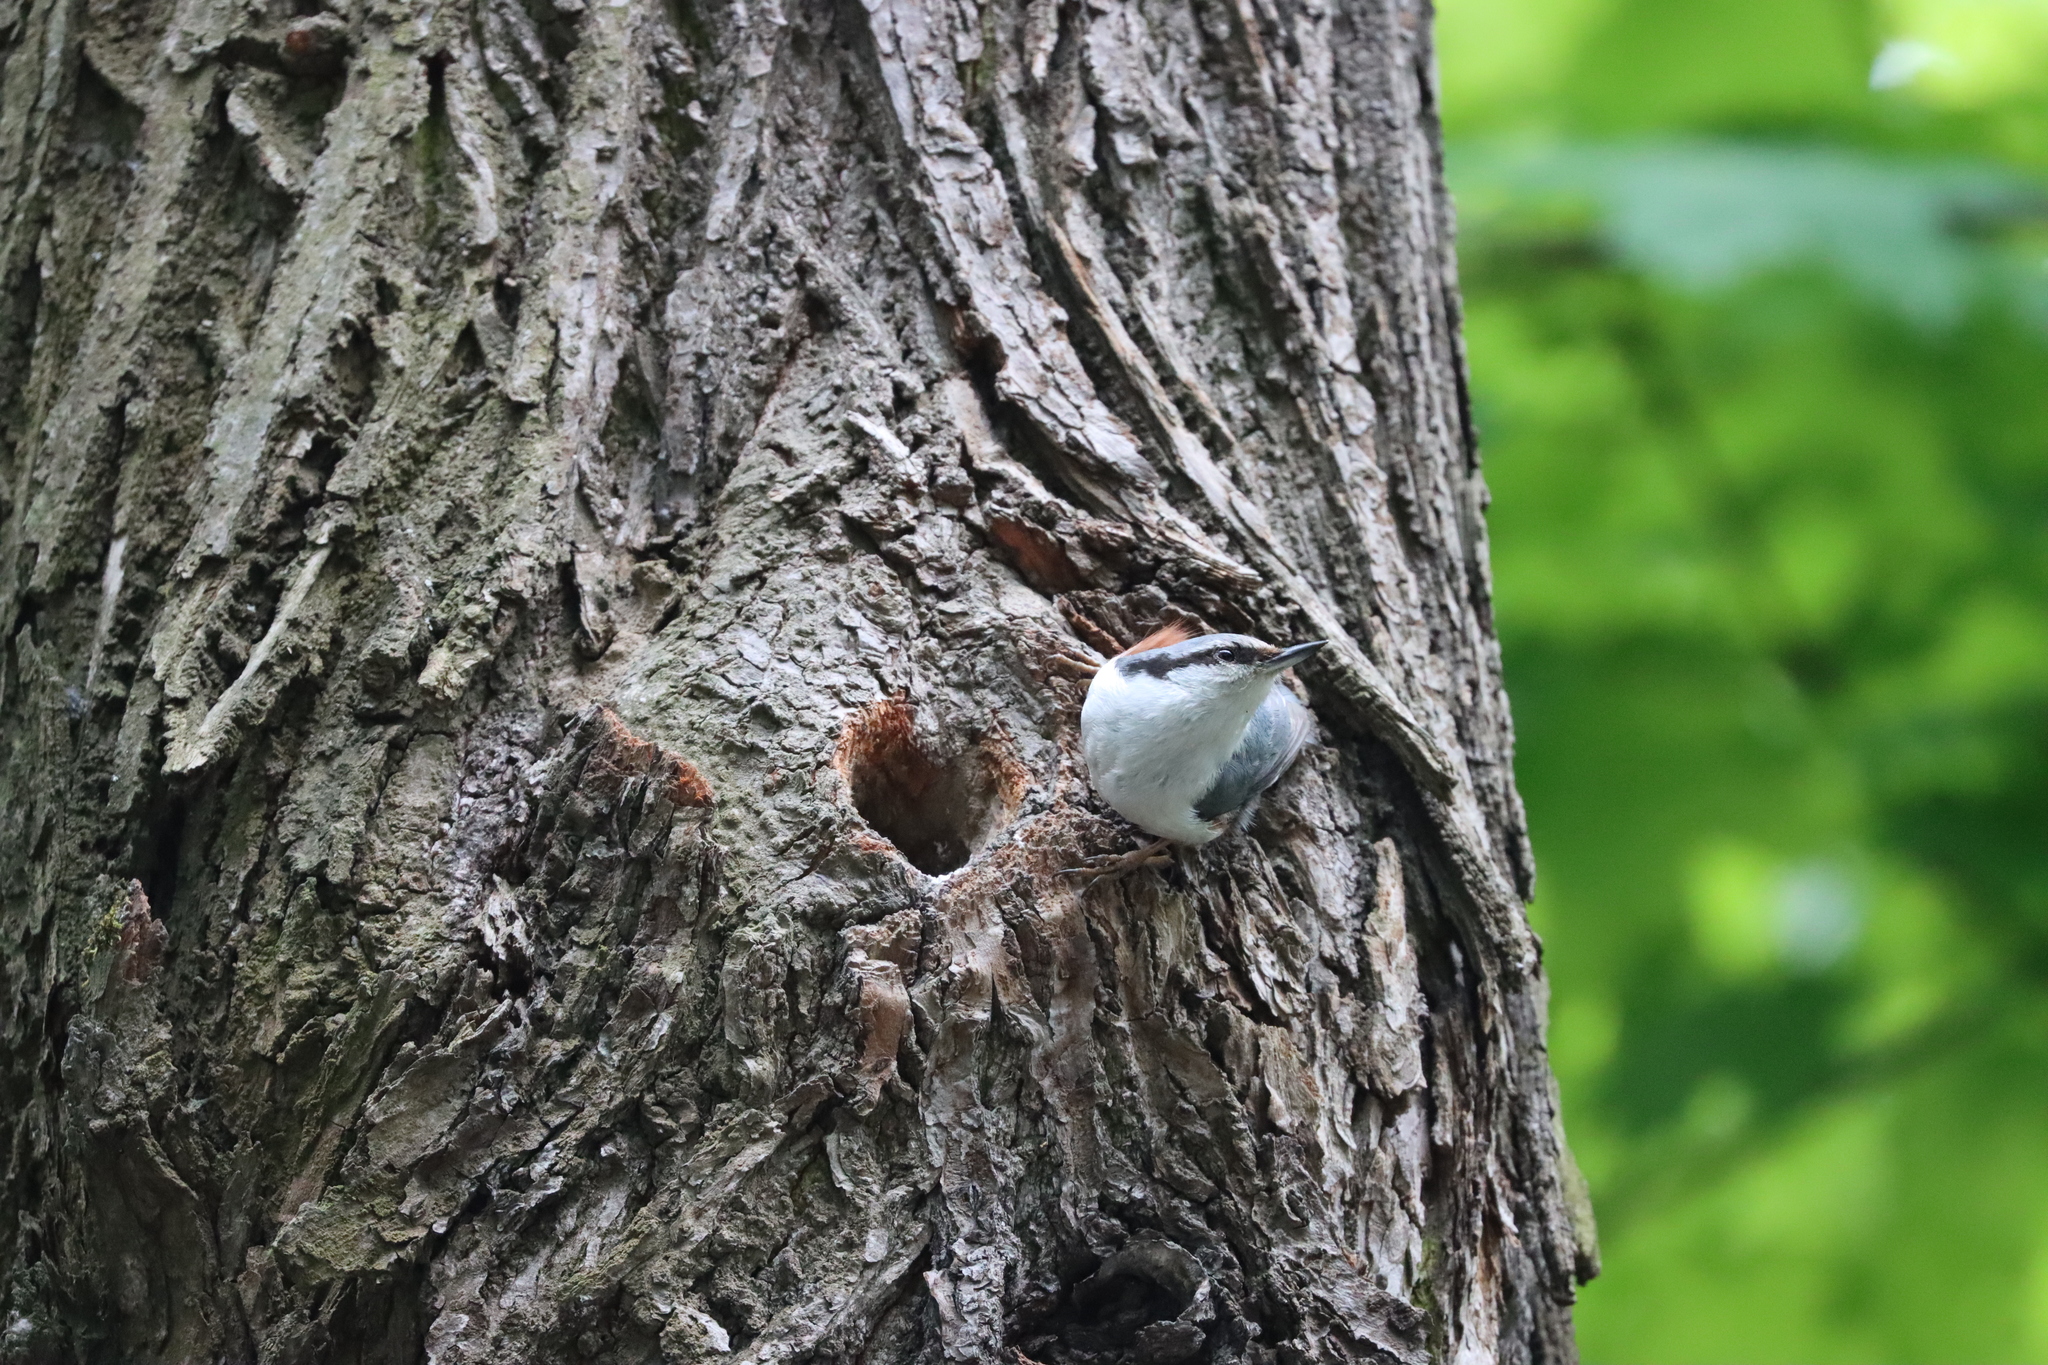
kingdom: Animalia
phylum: Chordata
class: Aves
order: Passeriformes
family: Sittidae
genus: Sitta
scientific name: Sitta europaea
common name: Eurasian nuthatch
